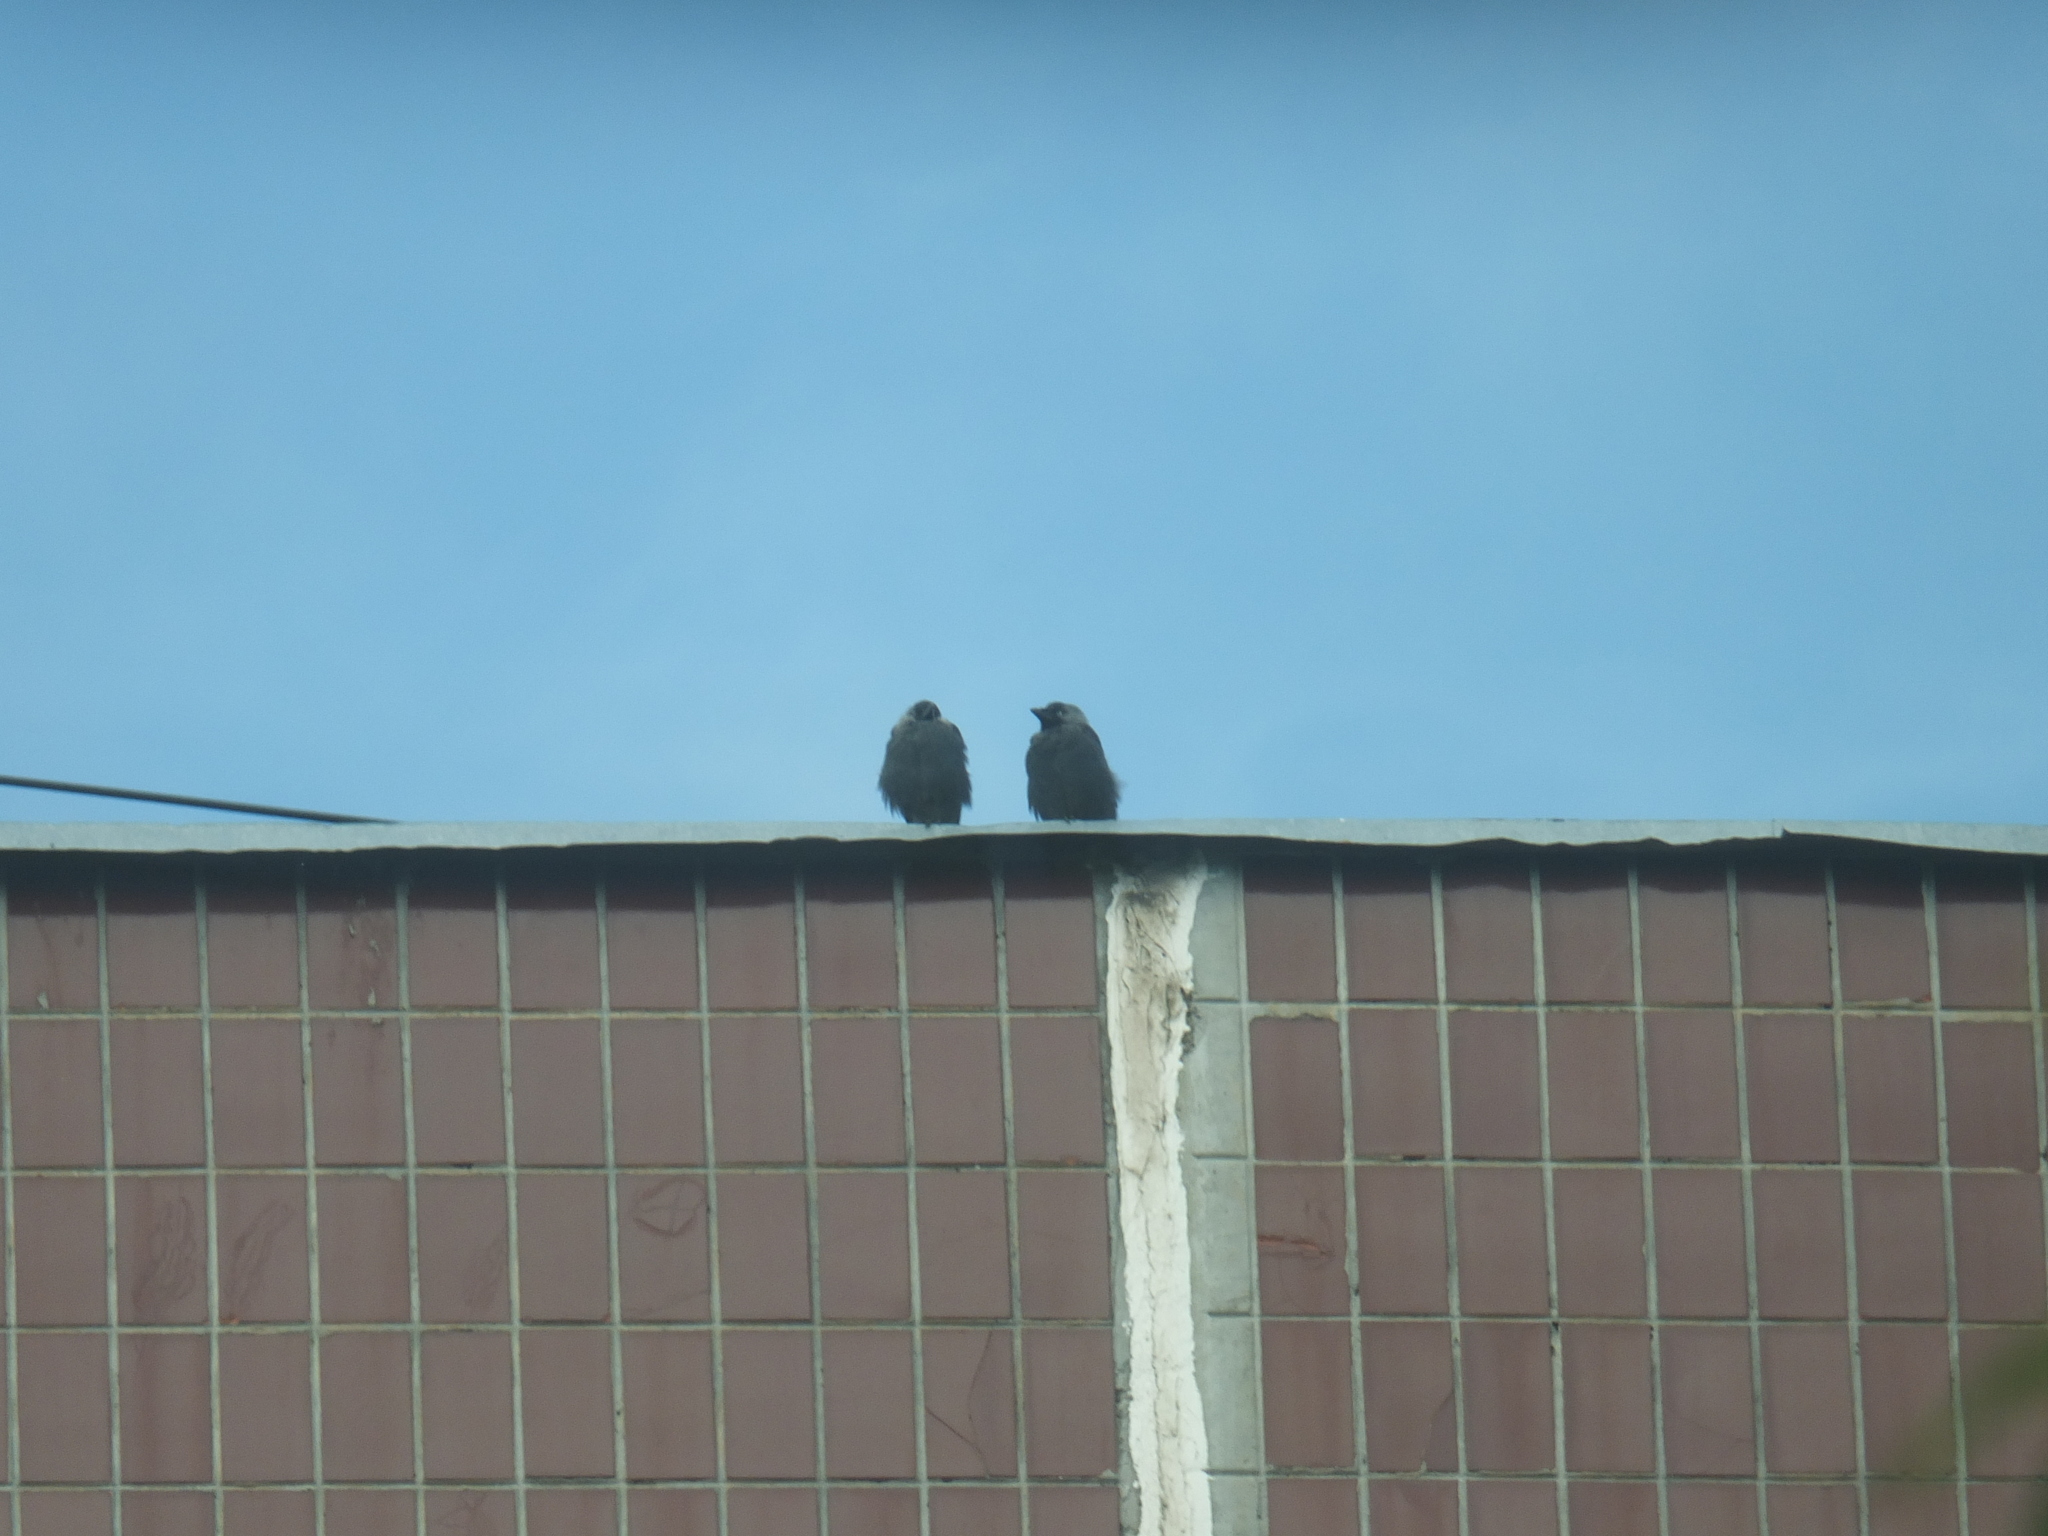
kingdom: Animalia
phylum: Chordata
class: Aves
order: Passeriformes
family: Corvidae
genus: Coloeus
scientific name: Coloeus monedula
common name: Western jackdaw
